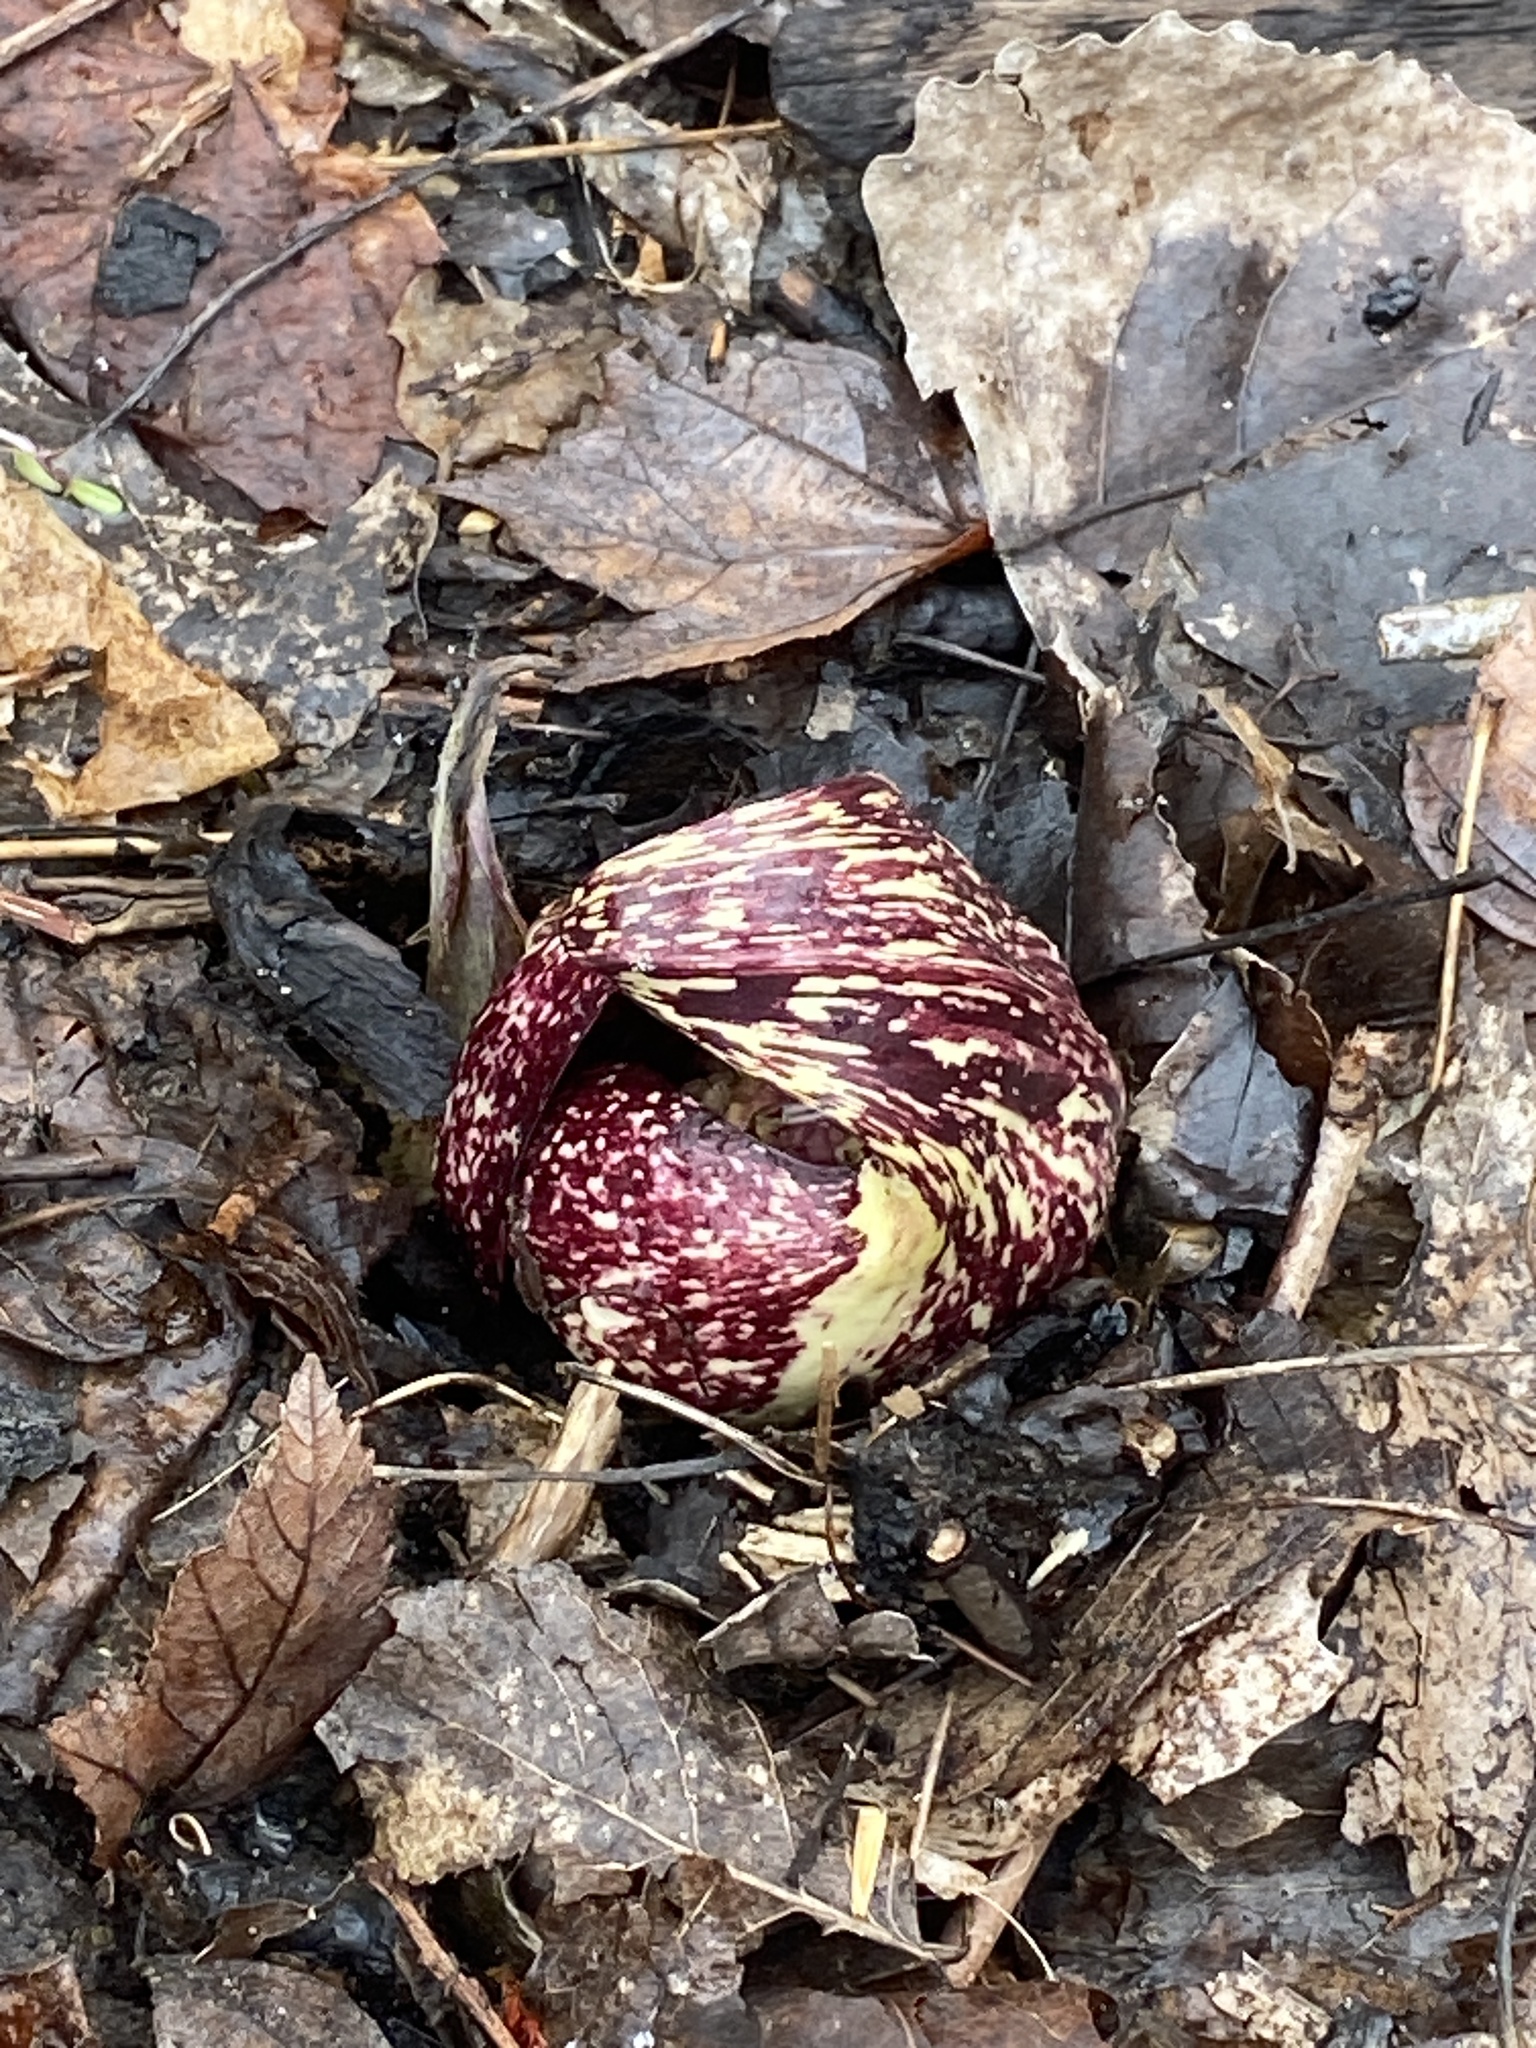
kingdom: Plantae
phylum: Tracheophyta
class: Liliopsida
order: Alismatales
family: Araceae
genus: Symplocarpus
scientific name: Symplocarpus foetidus
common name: Eastern skunk cabbage
